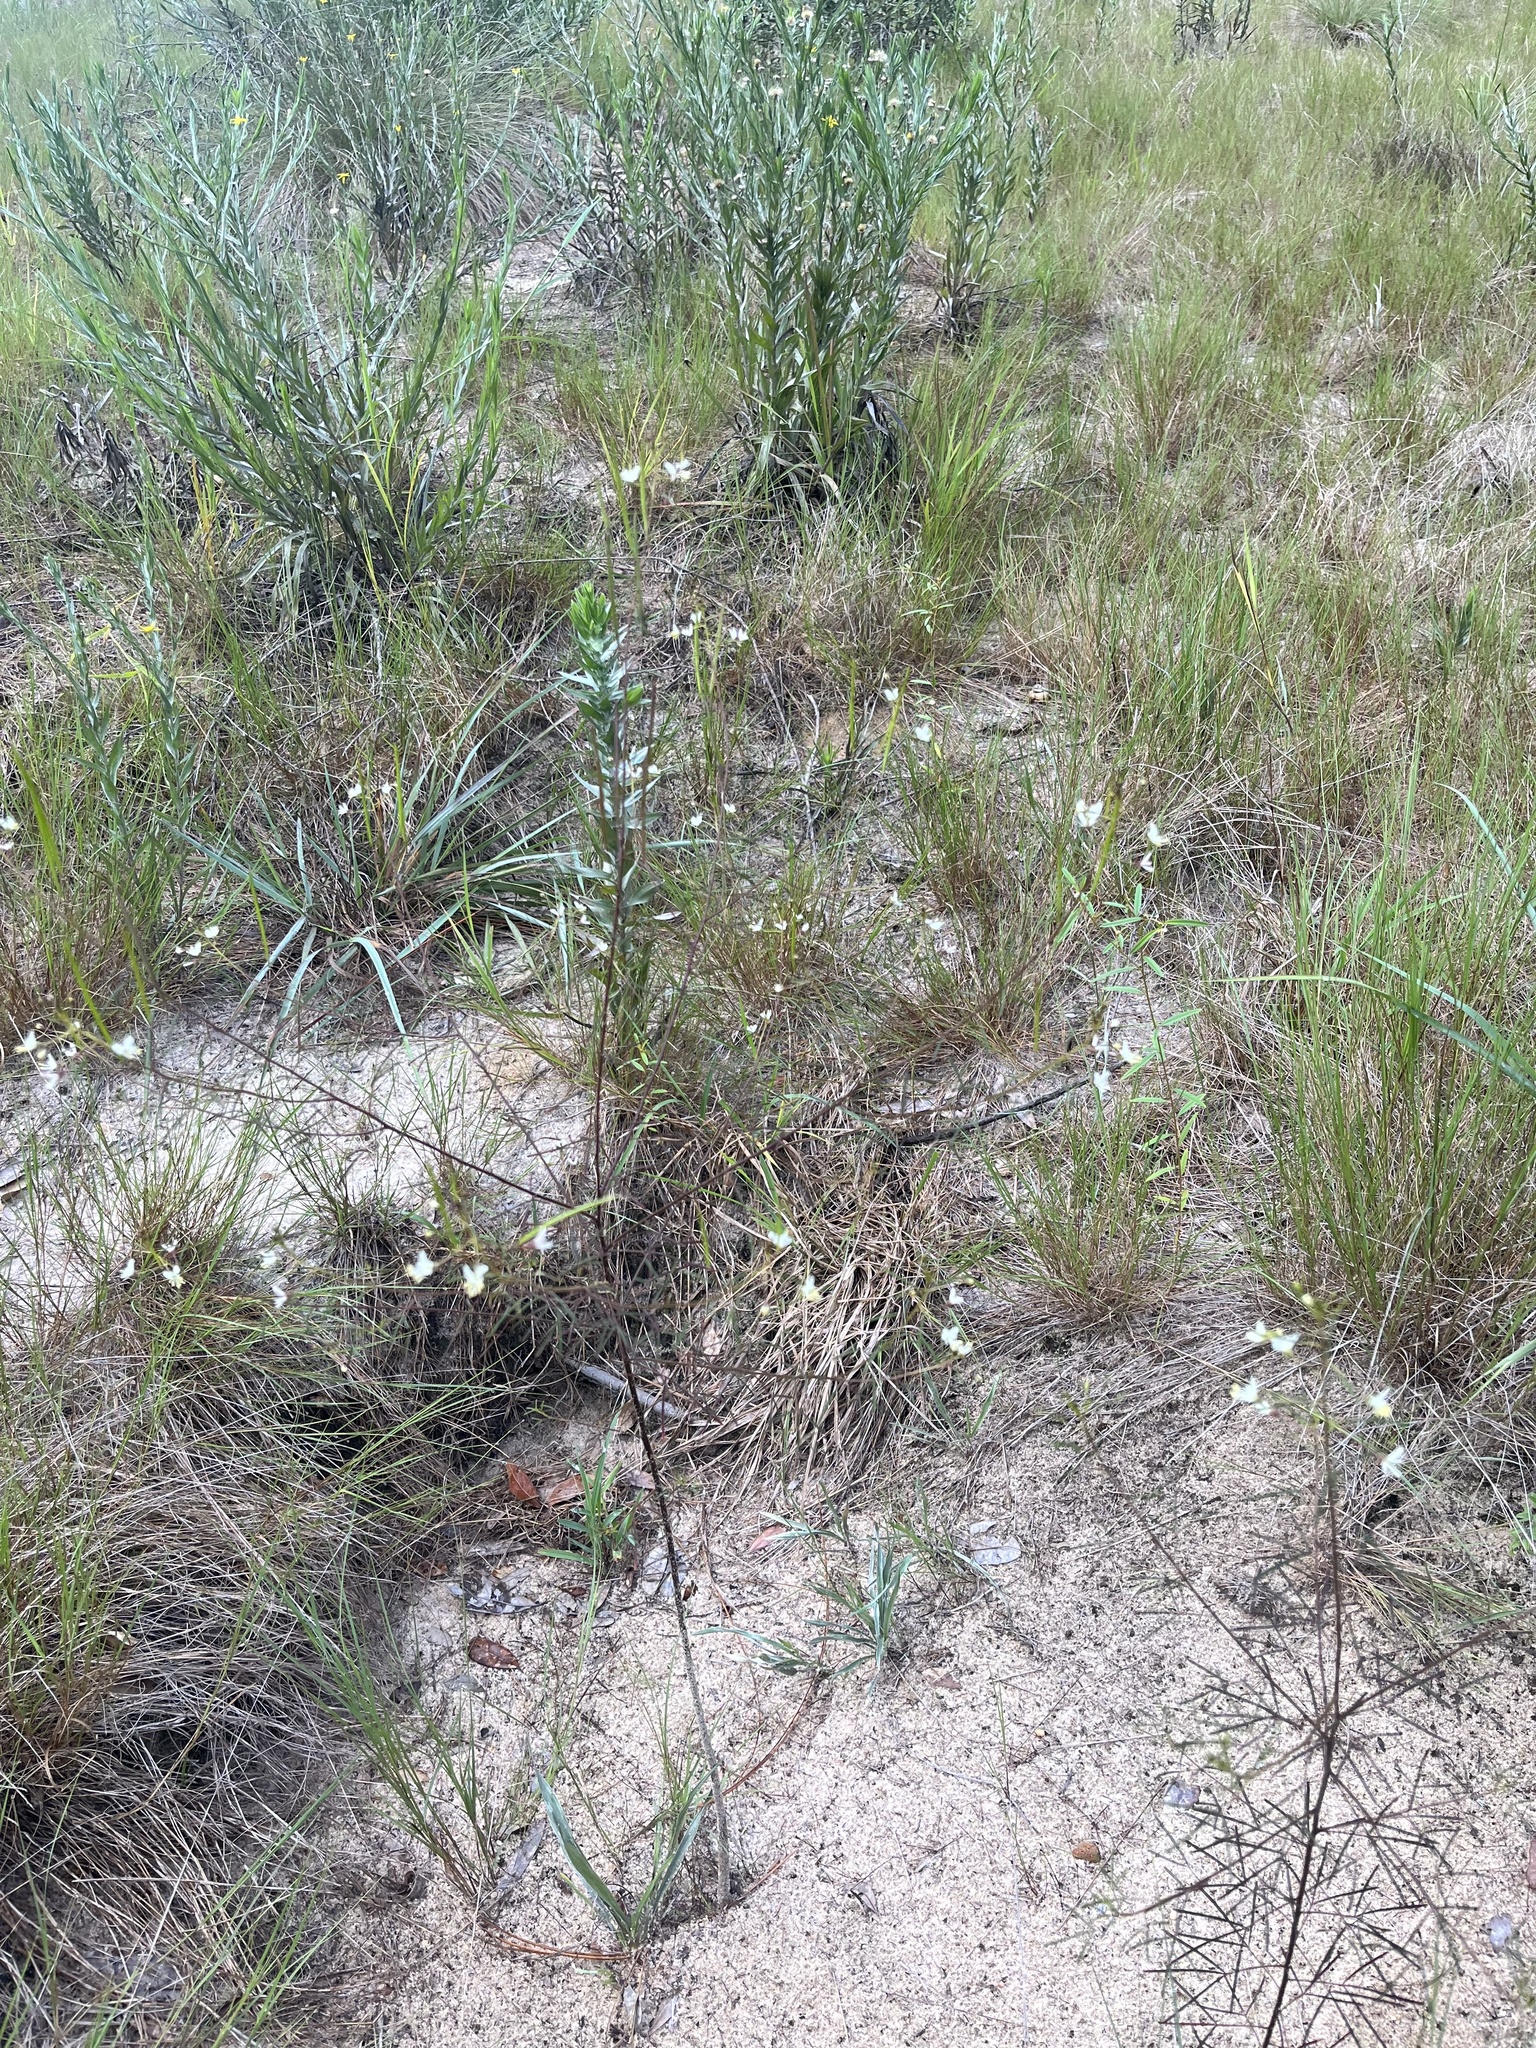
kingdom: Plantae
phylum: Tracheophyta
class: Magnoliopsida
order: Brassicales
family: Cleomaceae
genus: Polanisia
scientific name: Polanisia tenuifolia
